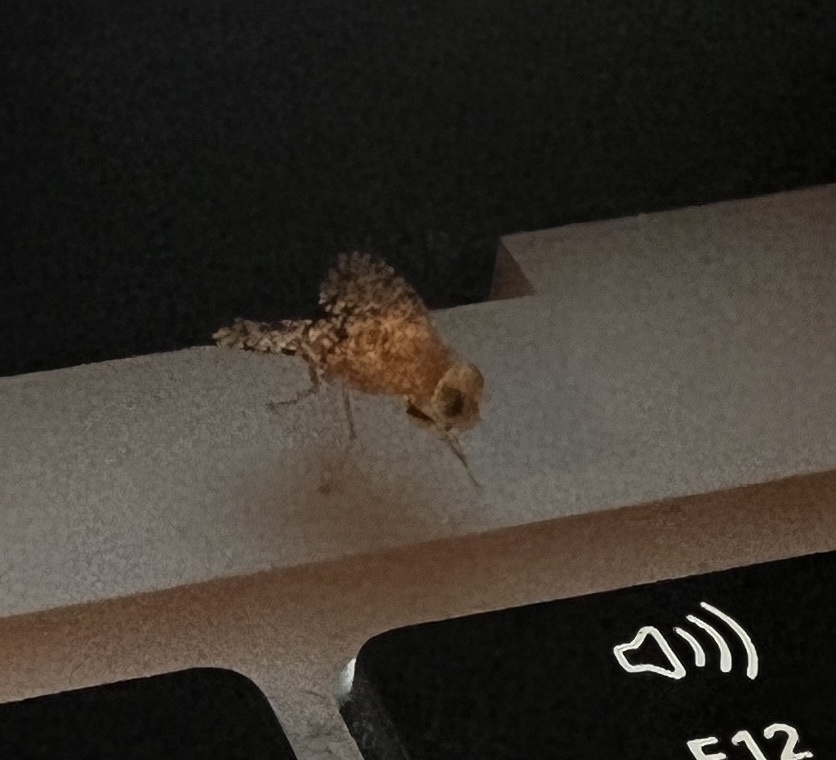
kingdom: Animalia
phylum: Arthropoda
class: Insecta
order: Diptera
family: Tephritidae
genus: Euaresta
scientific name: Euaresta aequalis
